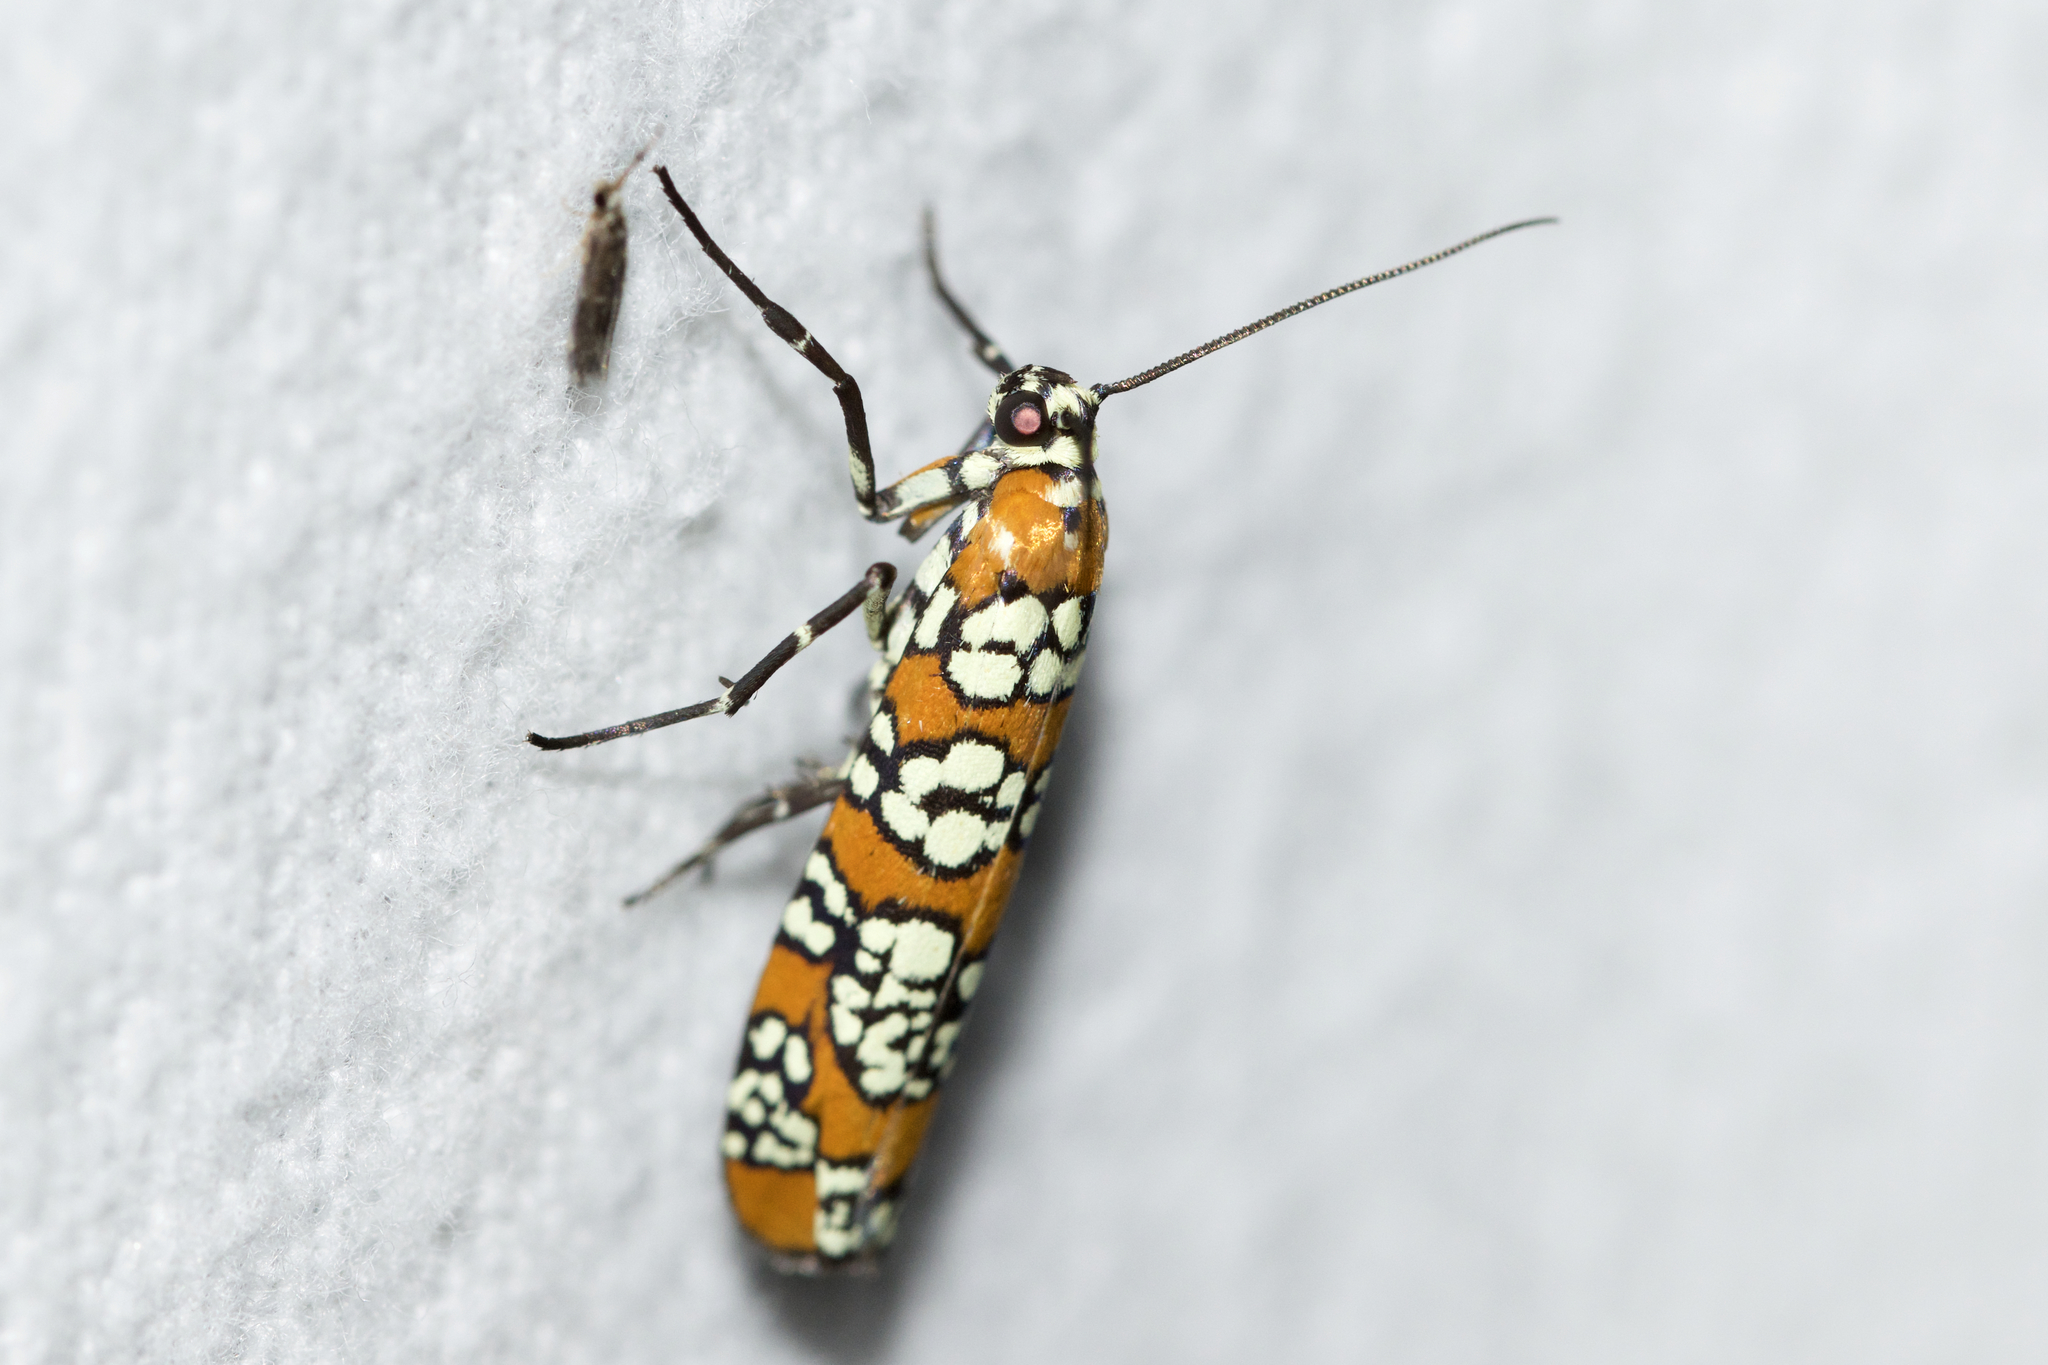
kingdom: Animalia
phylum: Arthropoda
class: Insecta
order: Lepidoptera
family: Attevidae
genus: Atteva
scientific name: Atteva punctella
